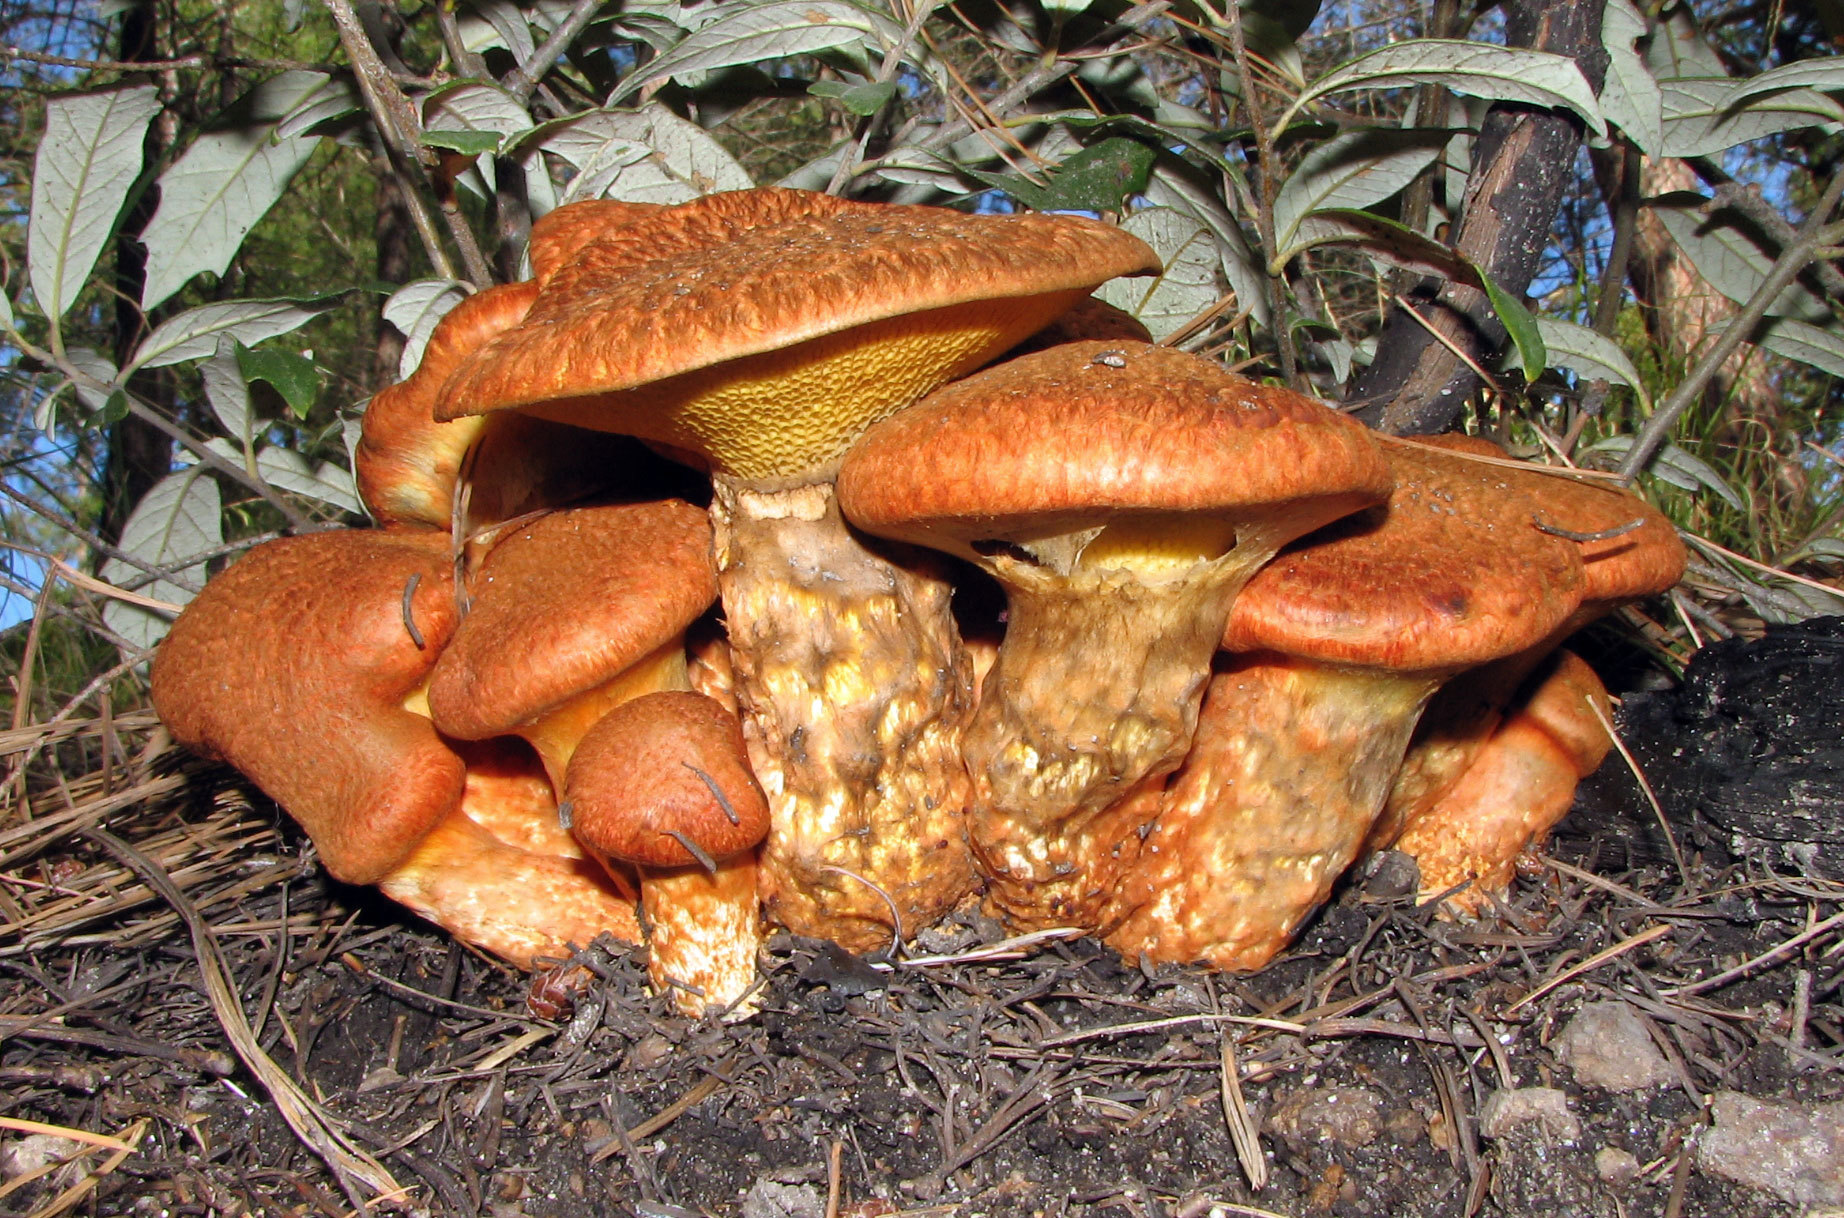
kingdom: Fungi
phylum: Basidiomycota
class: Agaricomycetes
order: Boletales
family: Suillaceae
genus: Suillus
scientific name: Suillus lakei
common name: Western painted suillus
